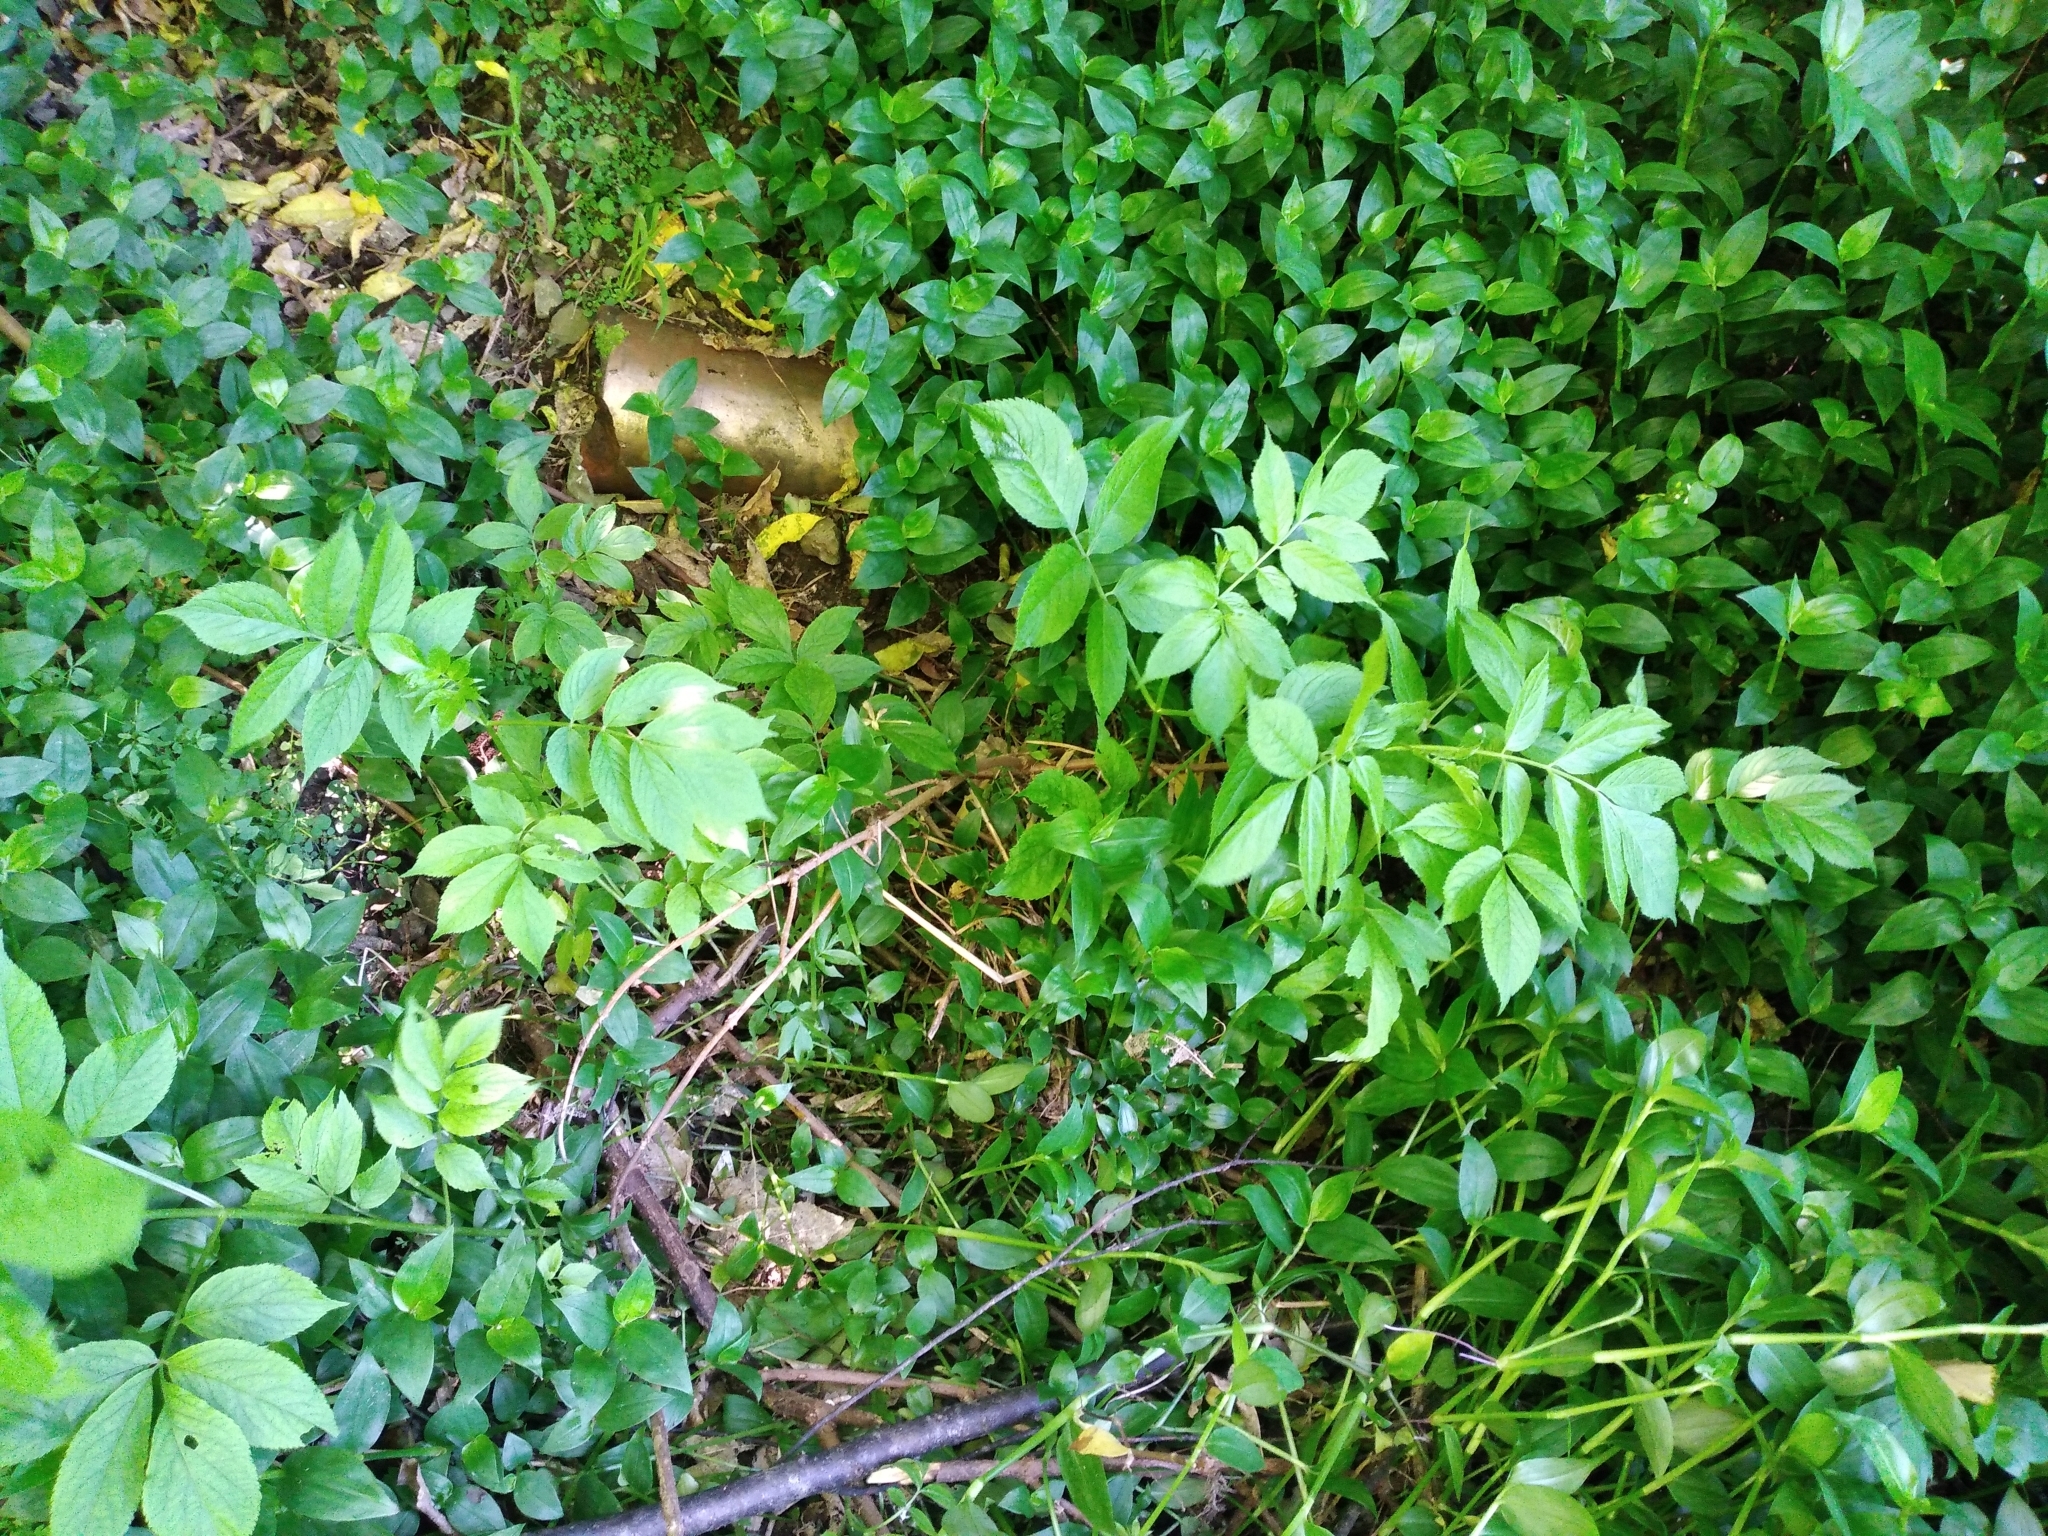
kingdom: Plantae
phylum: Tracheophyta
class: Magnoliopsida
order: Dipsacales
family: Viburnaceae
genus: Sambucus
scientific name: Sambucus nigra
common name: Elder
